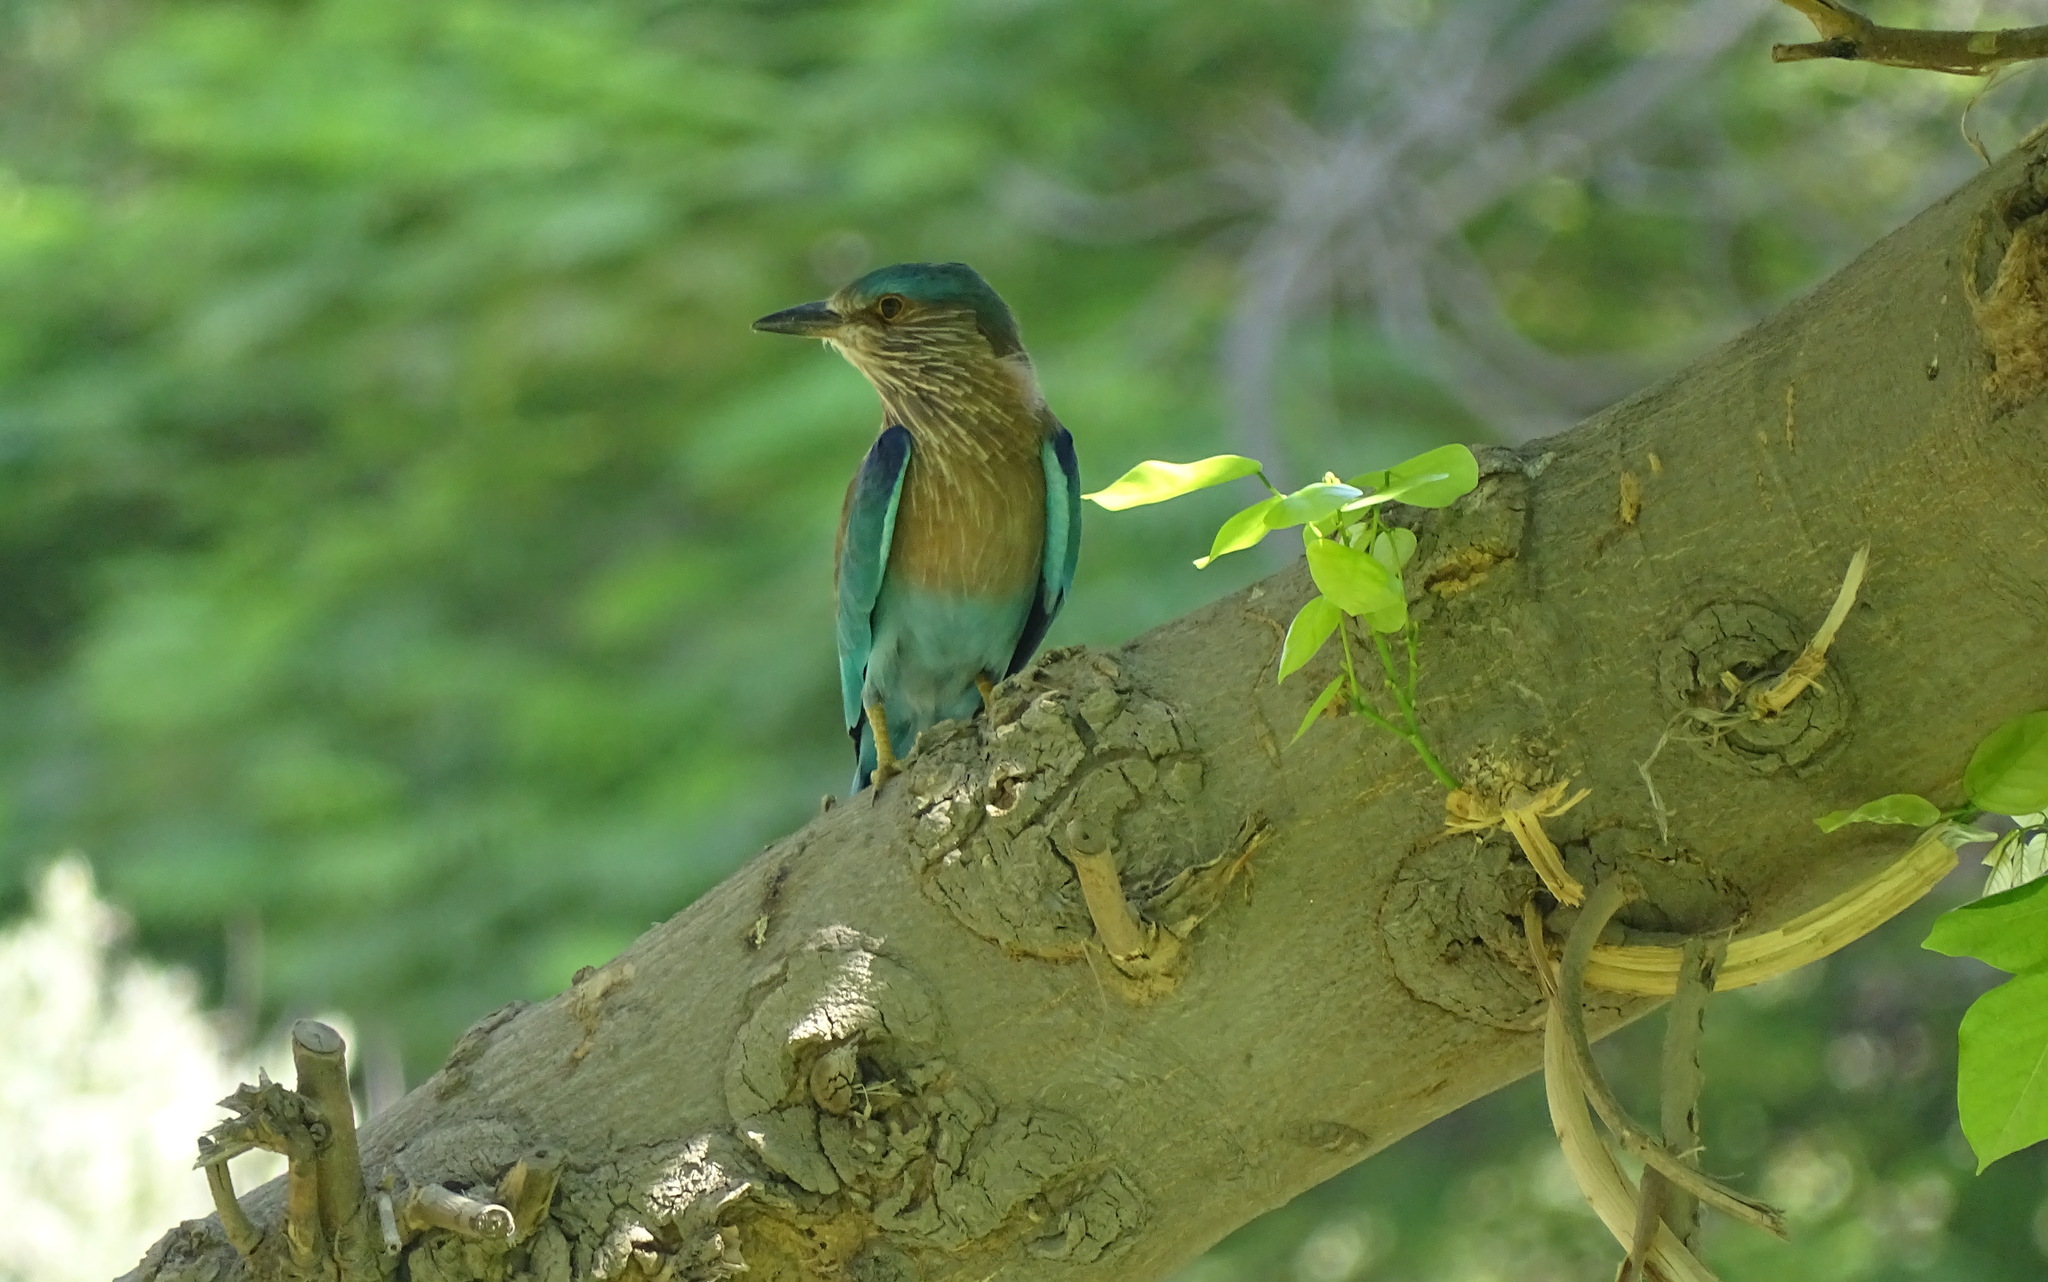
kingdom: Animalia
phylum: Chordata
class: Aves
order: Coraciiformes
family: Coraciidae
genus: Coracias
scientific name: Coracias benghalensis
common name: Indian roller
